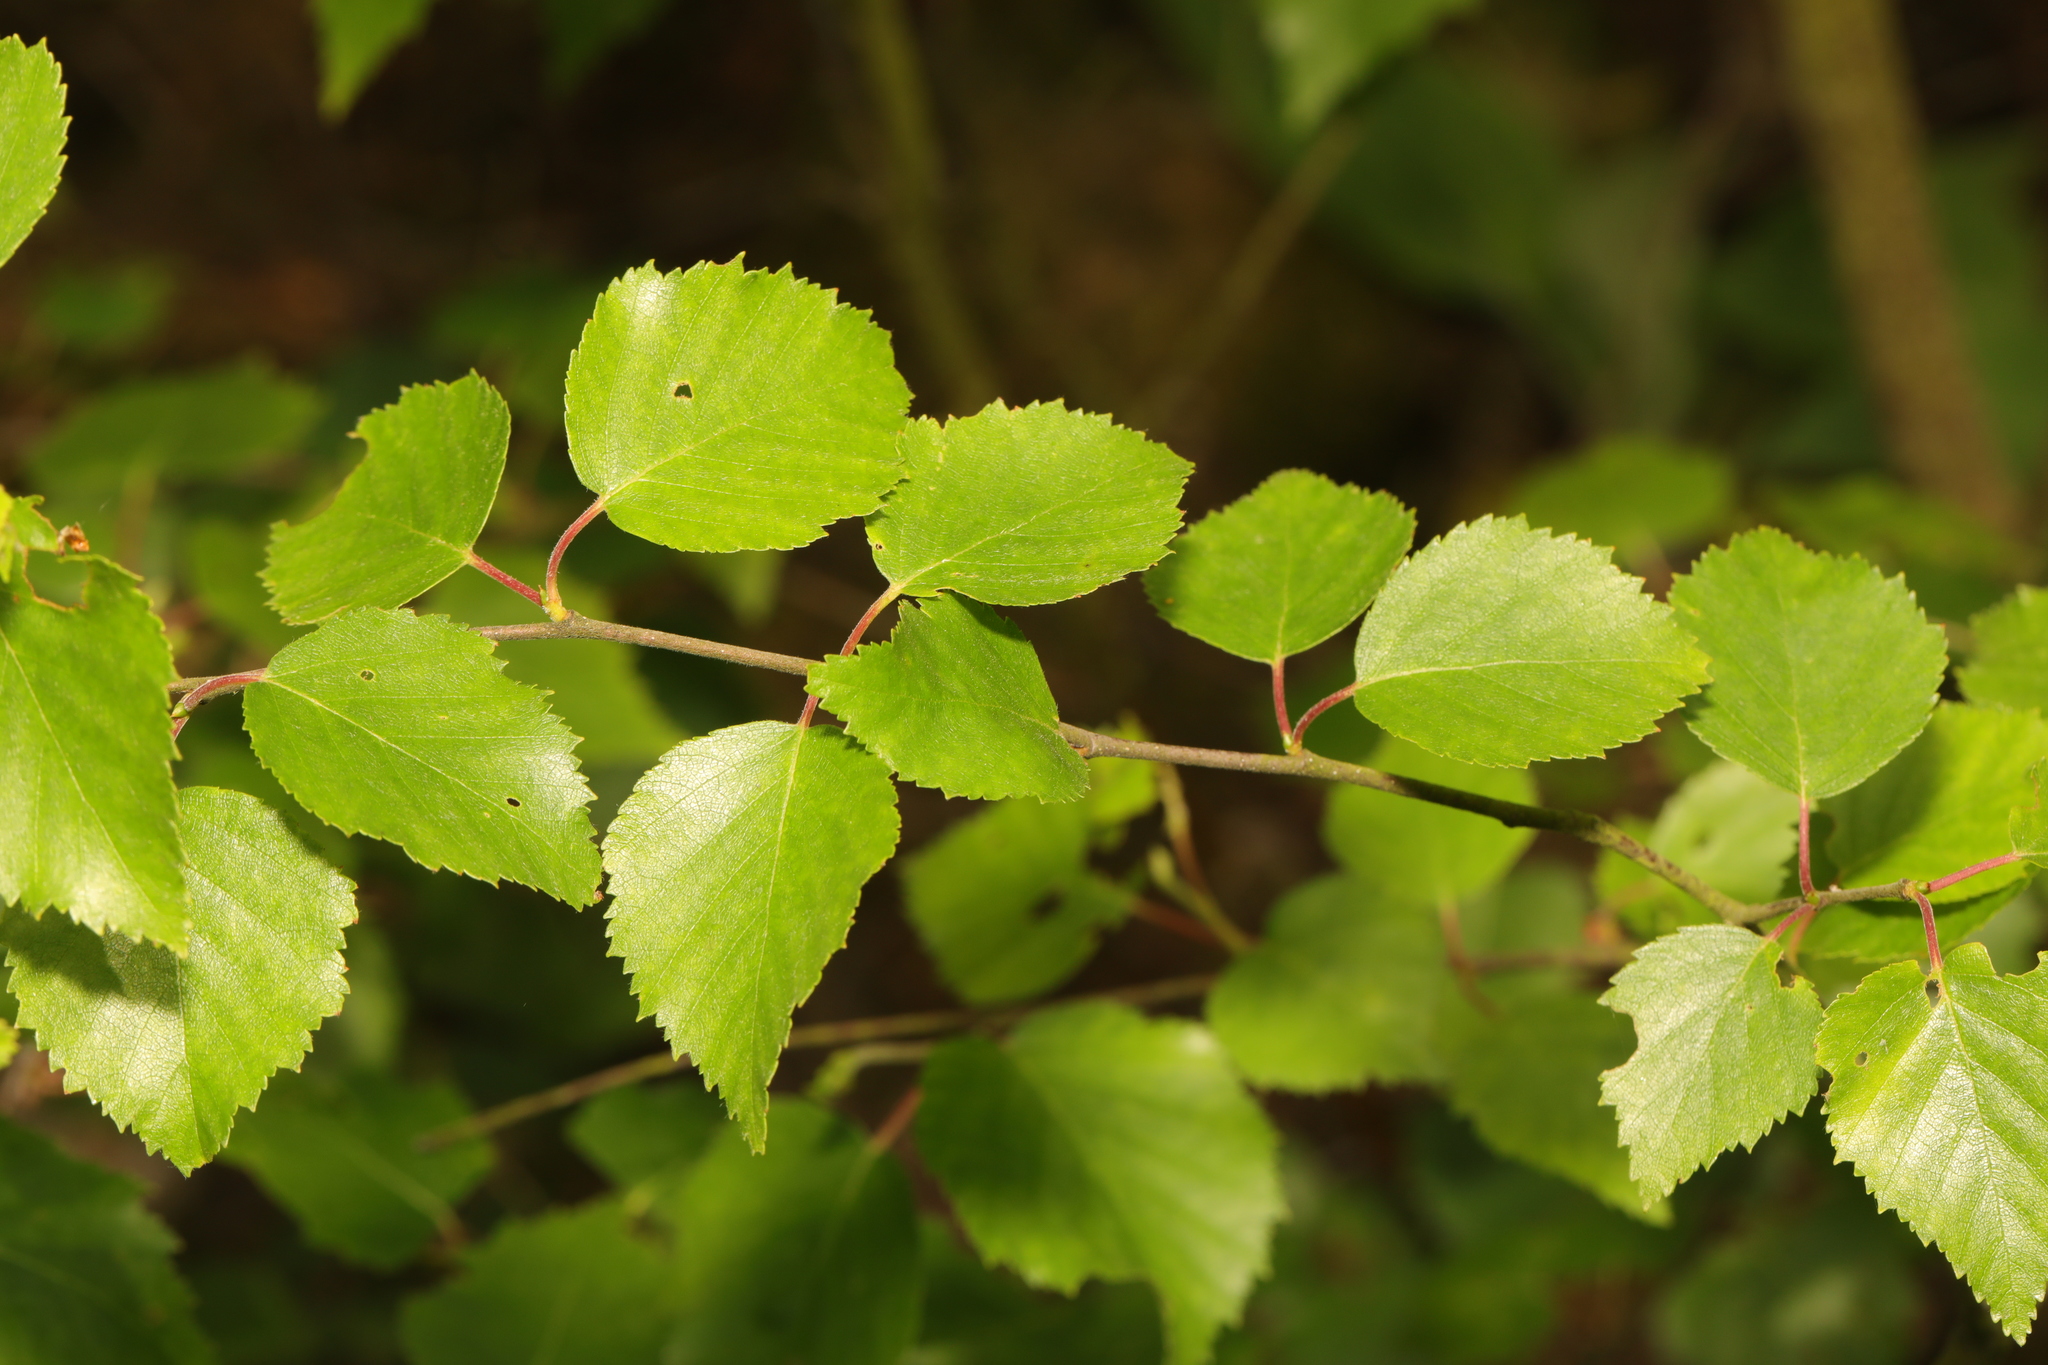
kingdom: Plantae
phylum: Tracheophyta
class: Magnoliopsida
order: Fagales
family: Betulaceae
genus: Betula
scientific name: Betula pubescens
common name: Downy birch
